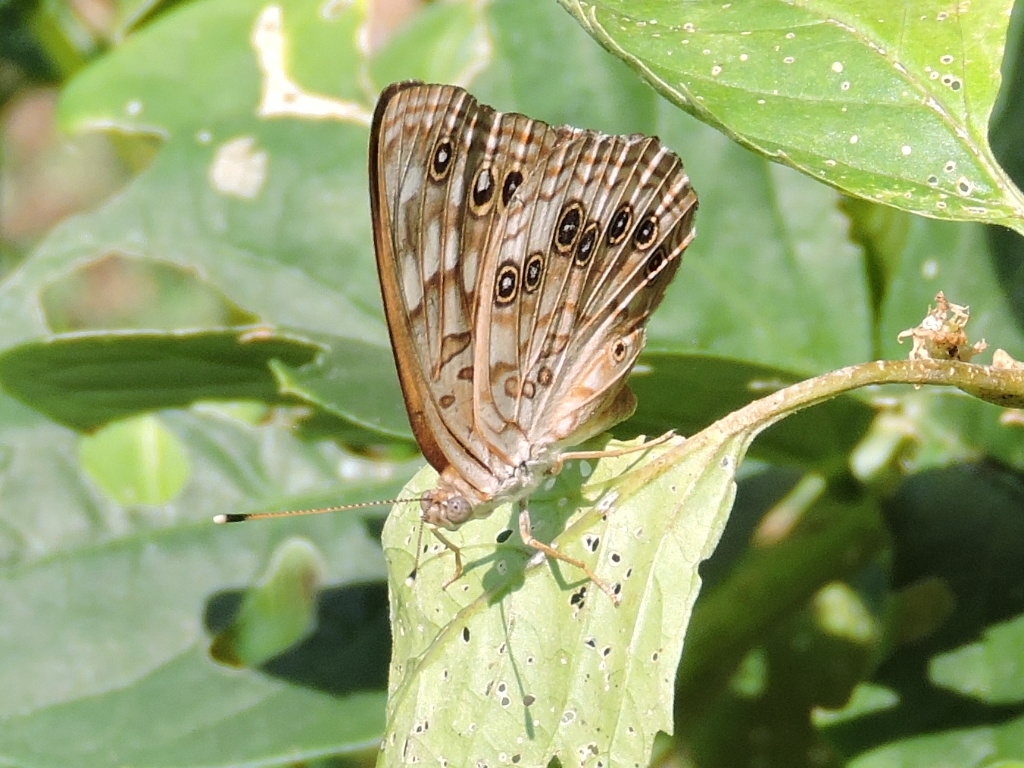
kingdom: Animalia
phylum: Arthropoda
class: Insecta
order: Lepidoptera
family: Nymphalidae
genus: Asterocampa
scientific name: Asterocampa celtis
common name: Hackberry emperor
